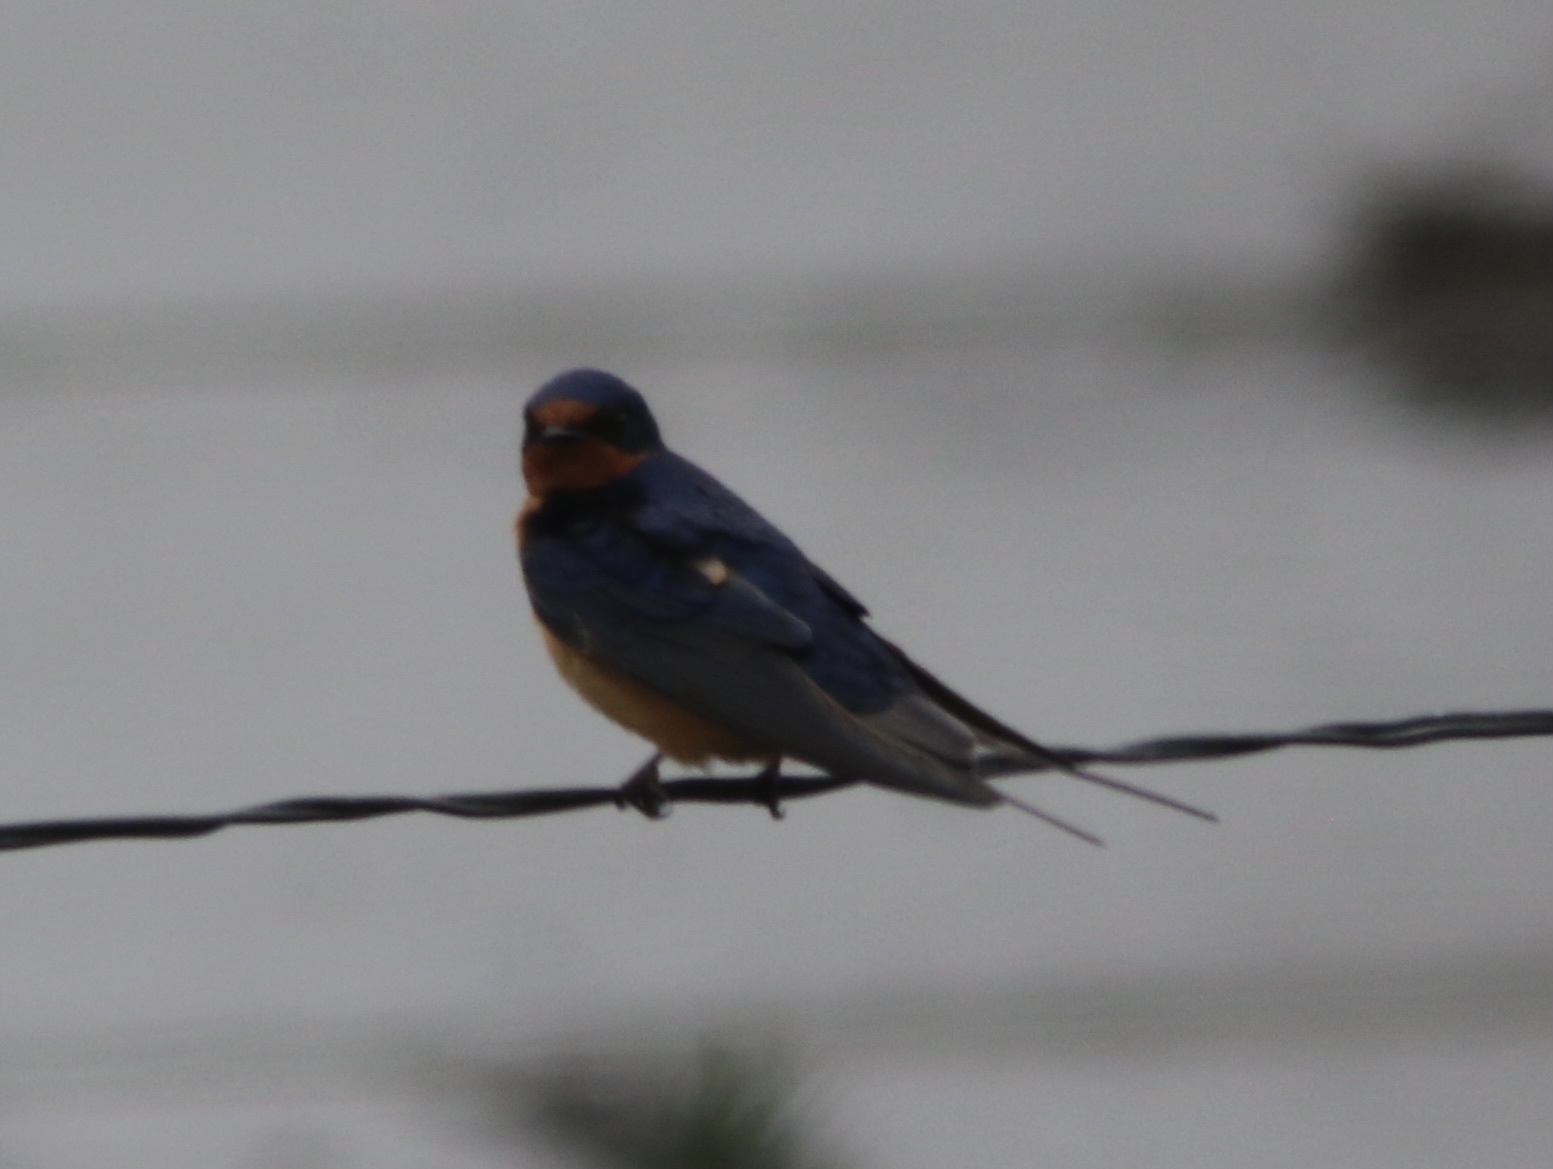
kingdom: Animalia
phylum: Chordata
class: Aves
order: Passeriformes
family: Hirundinidae
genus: Hirundo
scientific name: Hirundo rustica
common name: Barn swallow
